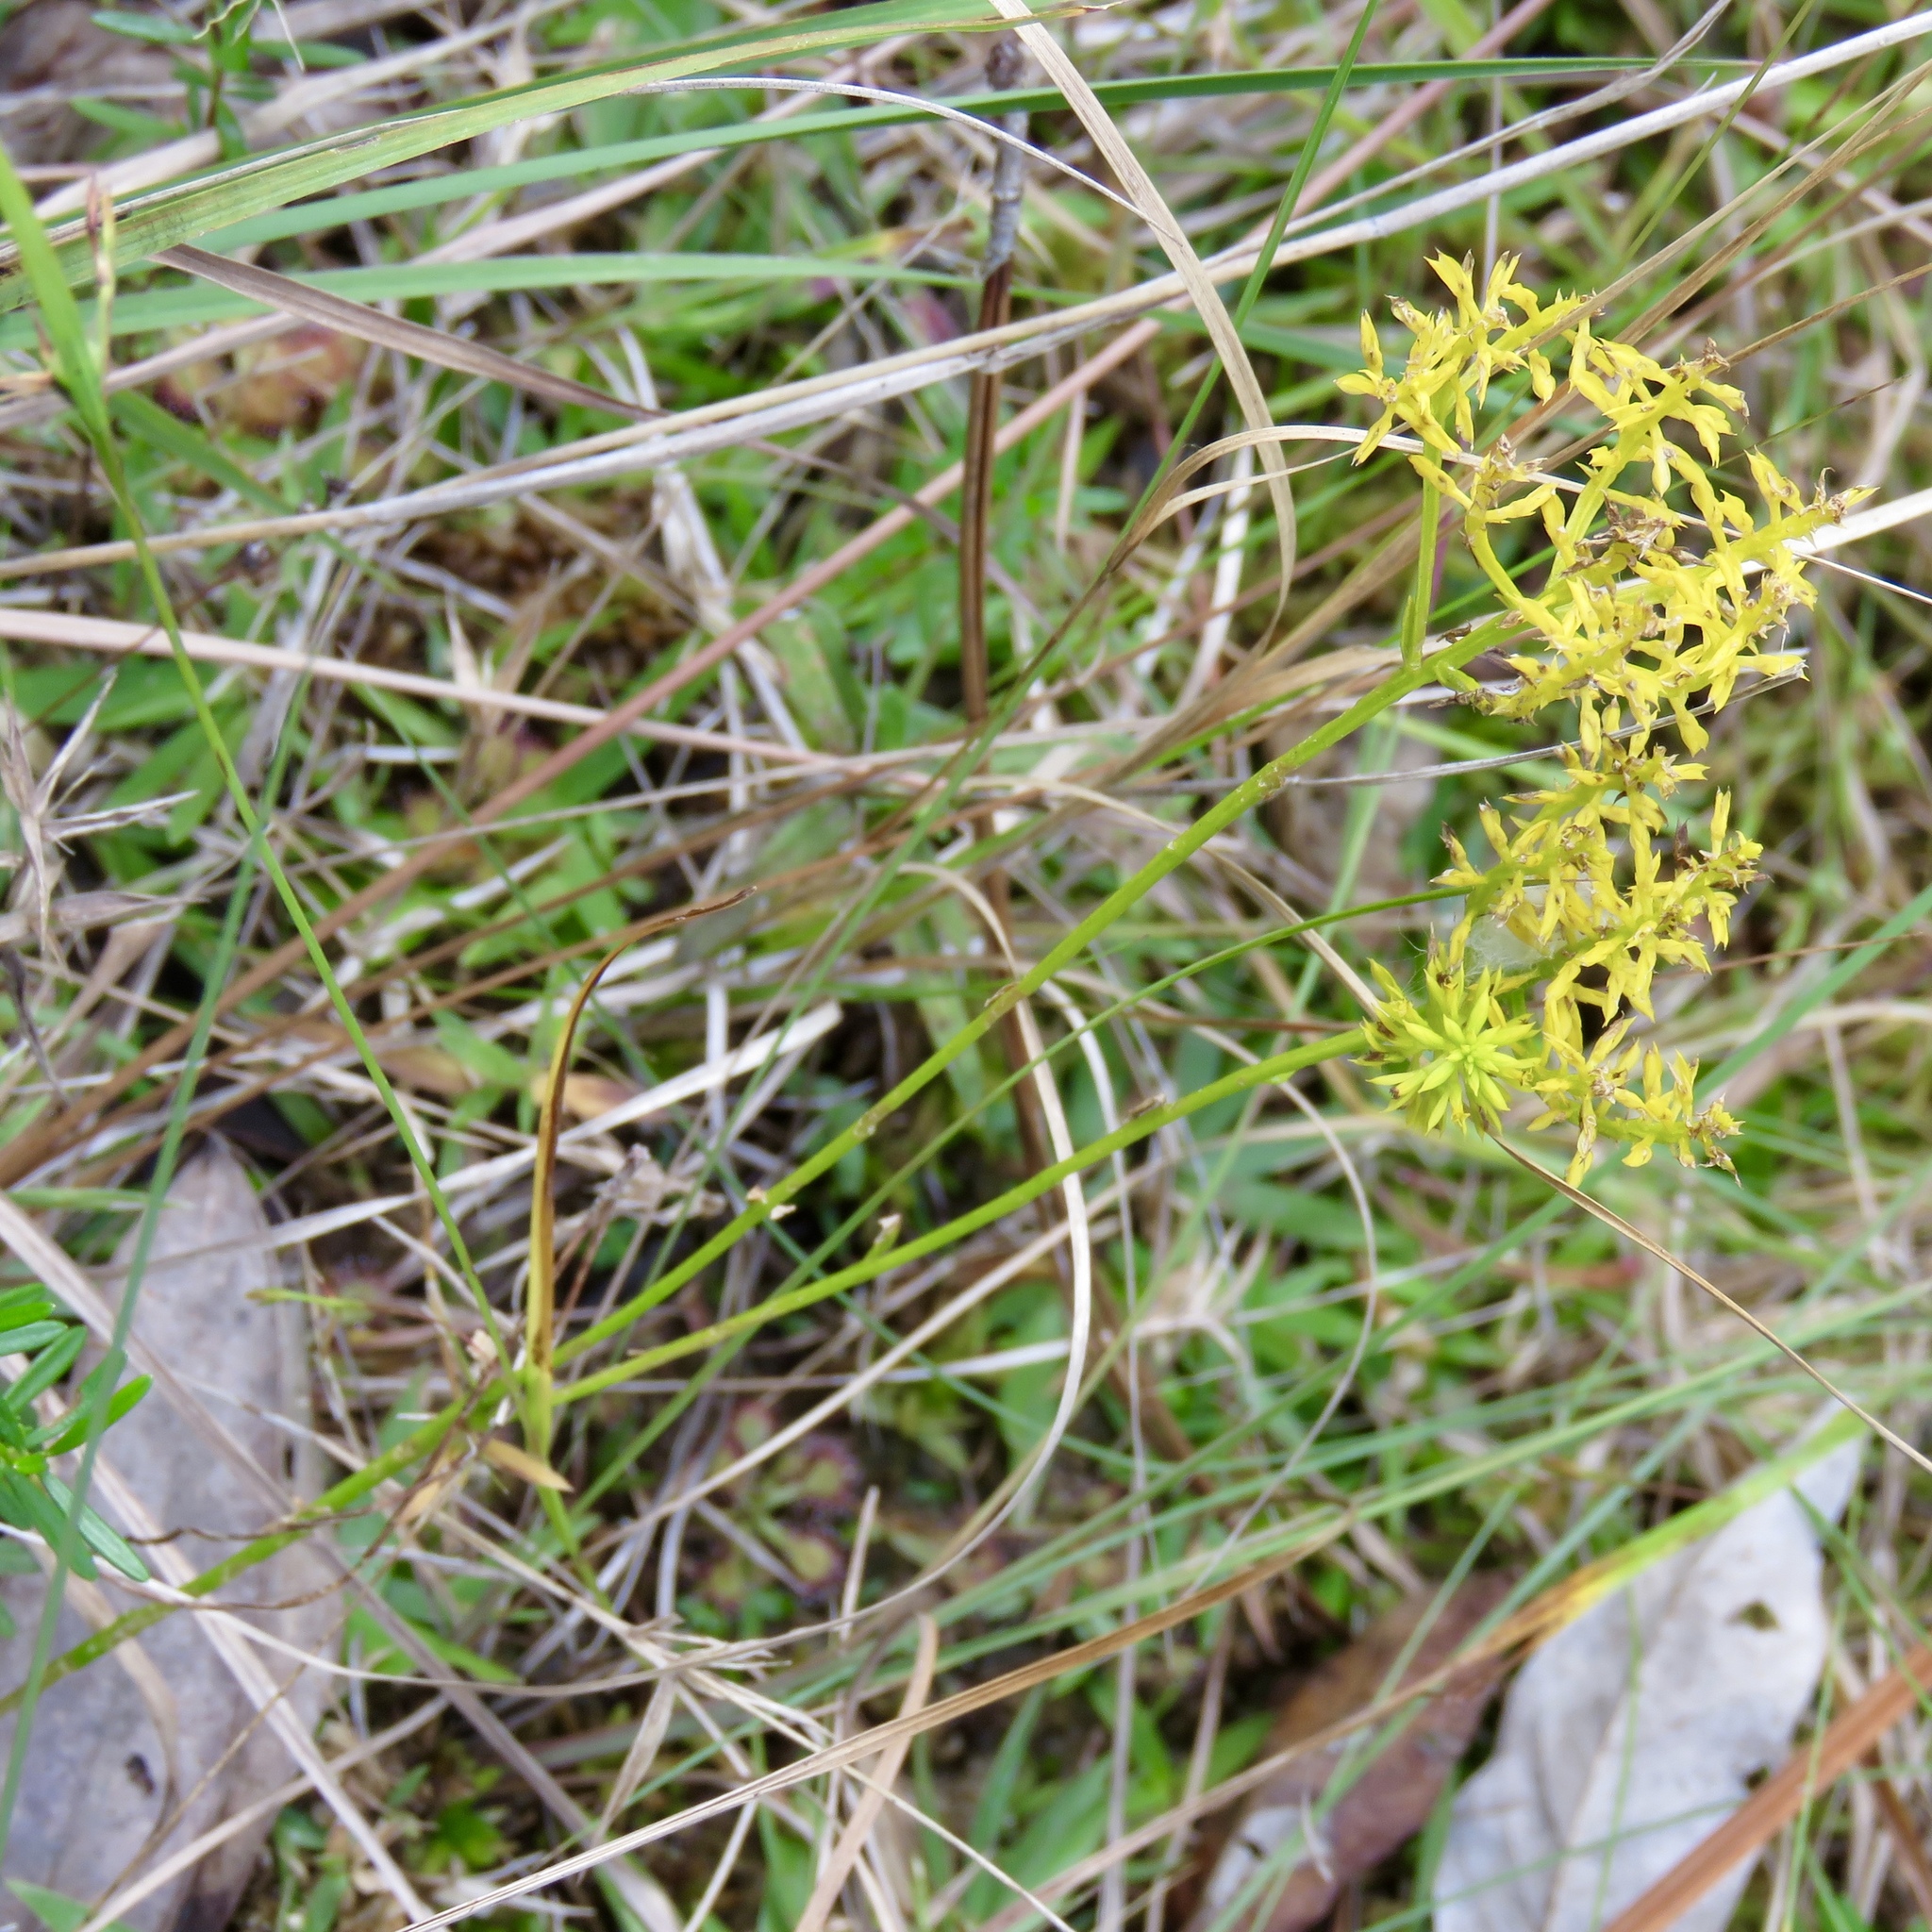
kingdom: Plantae
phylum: Tracheophyta
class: Magnoliopsida
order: Fabales
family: Polygalaceae
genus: Polygala
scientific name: Polygala ramosa
